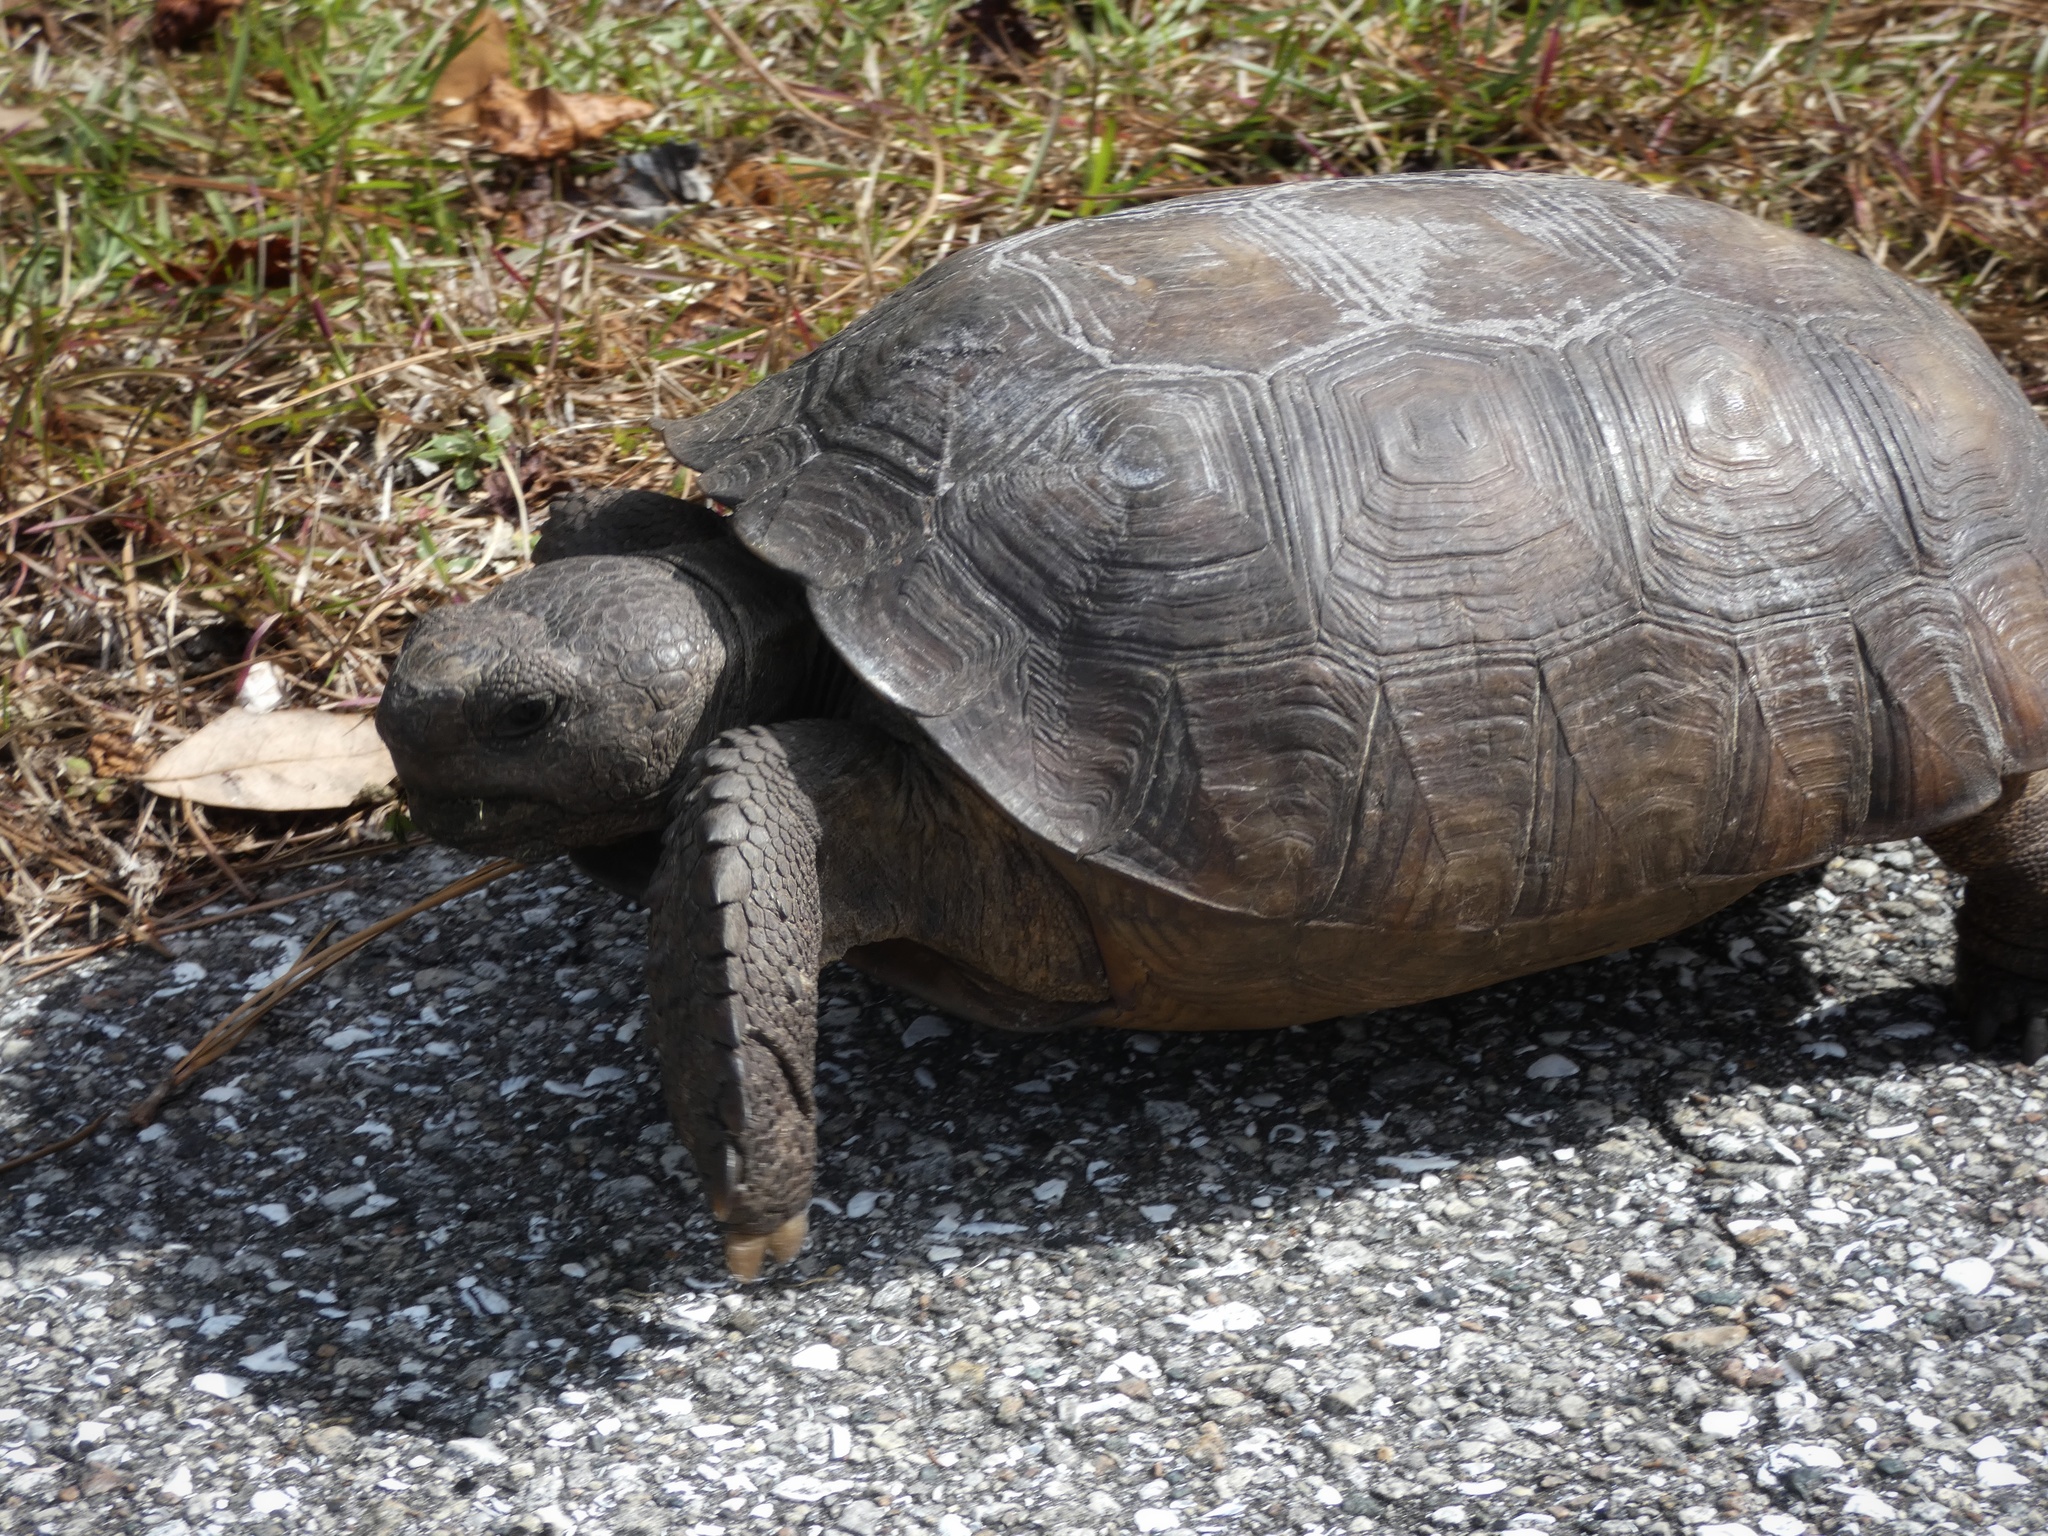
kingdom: Animalia
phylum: Chordata
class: Testudines
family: Testudinidae
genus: Gopherus
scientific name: Gopherus polyphemus
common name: Florida gopher tortoise
